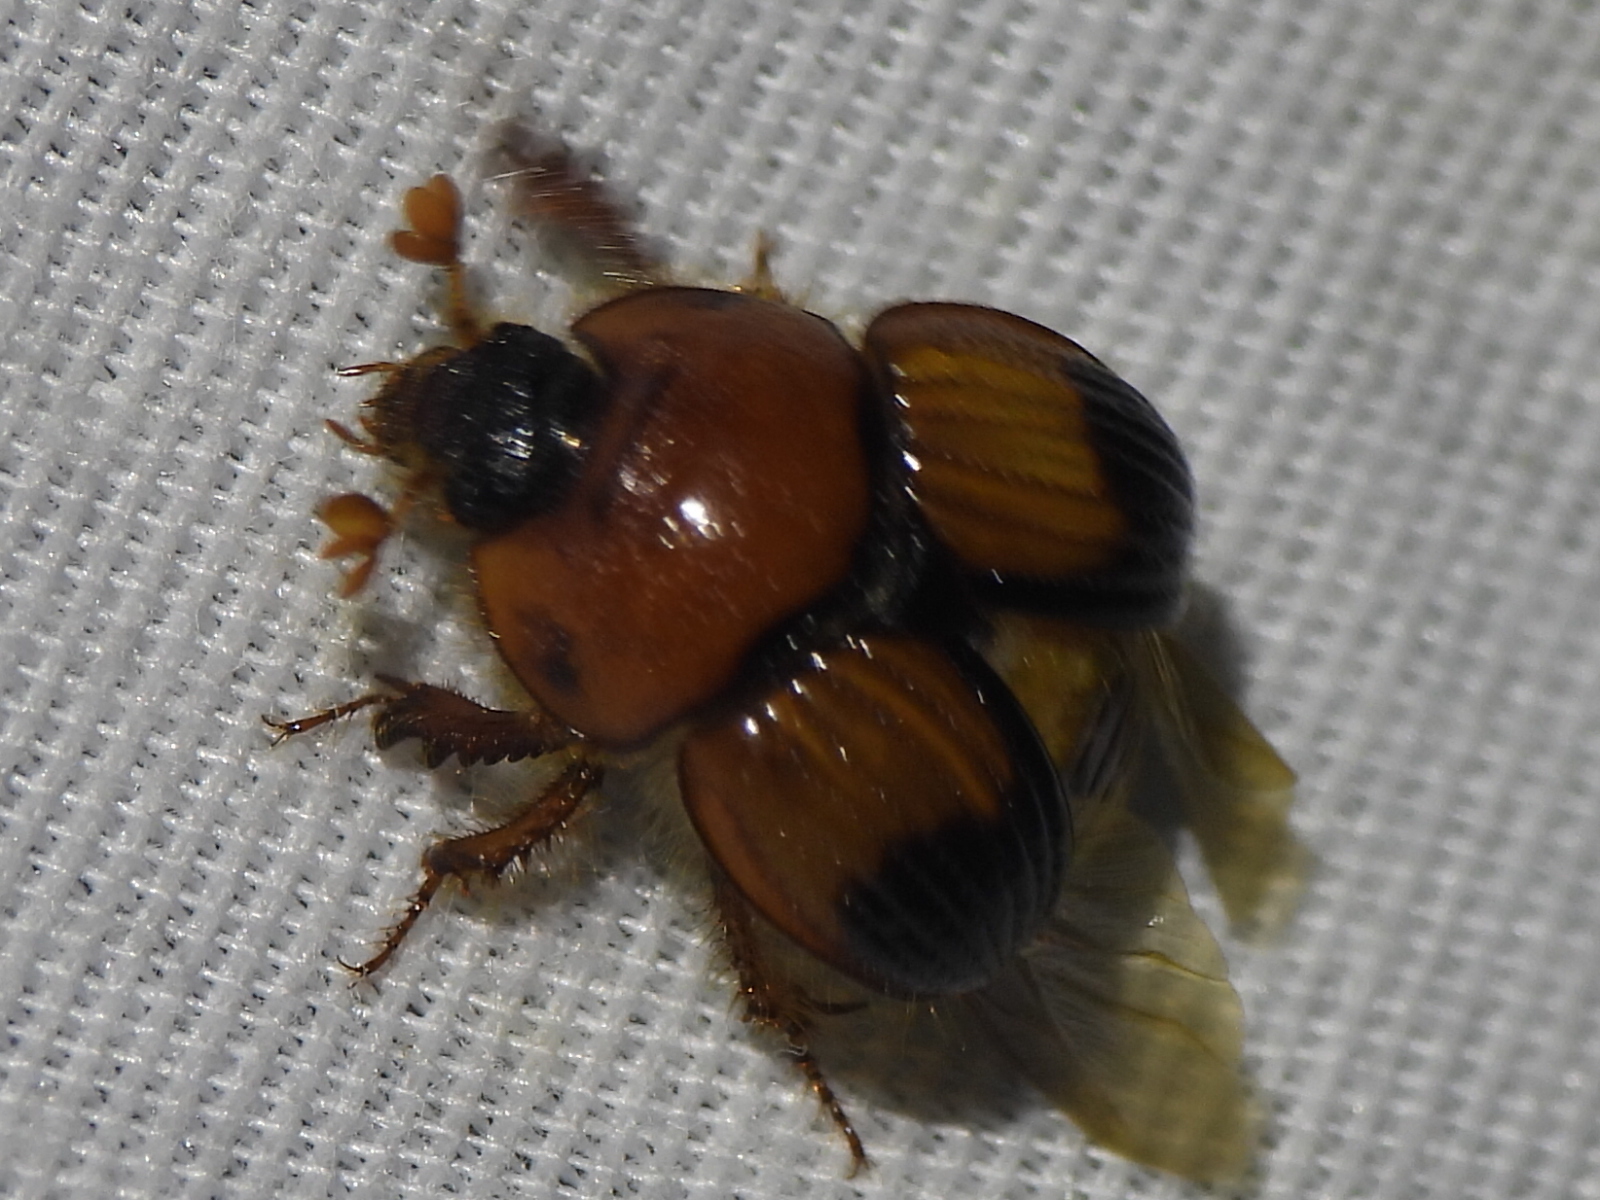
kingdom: Animalia
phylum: Arthropoda
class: Insecta
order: Coleoptera
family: Geotrupidae
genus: Bolbocerosoma
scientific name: Bolbocerosoma pusillum
